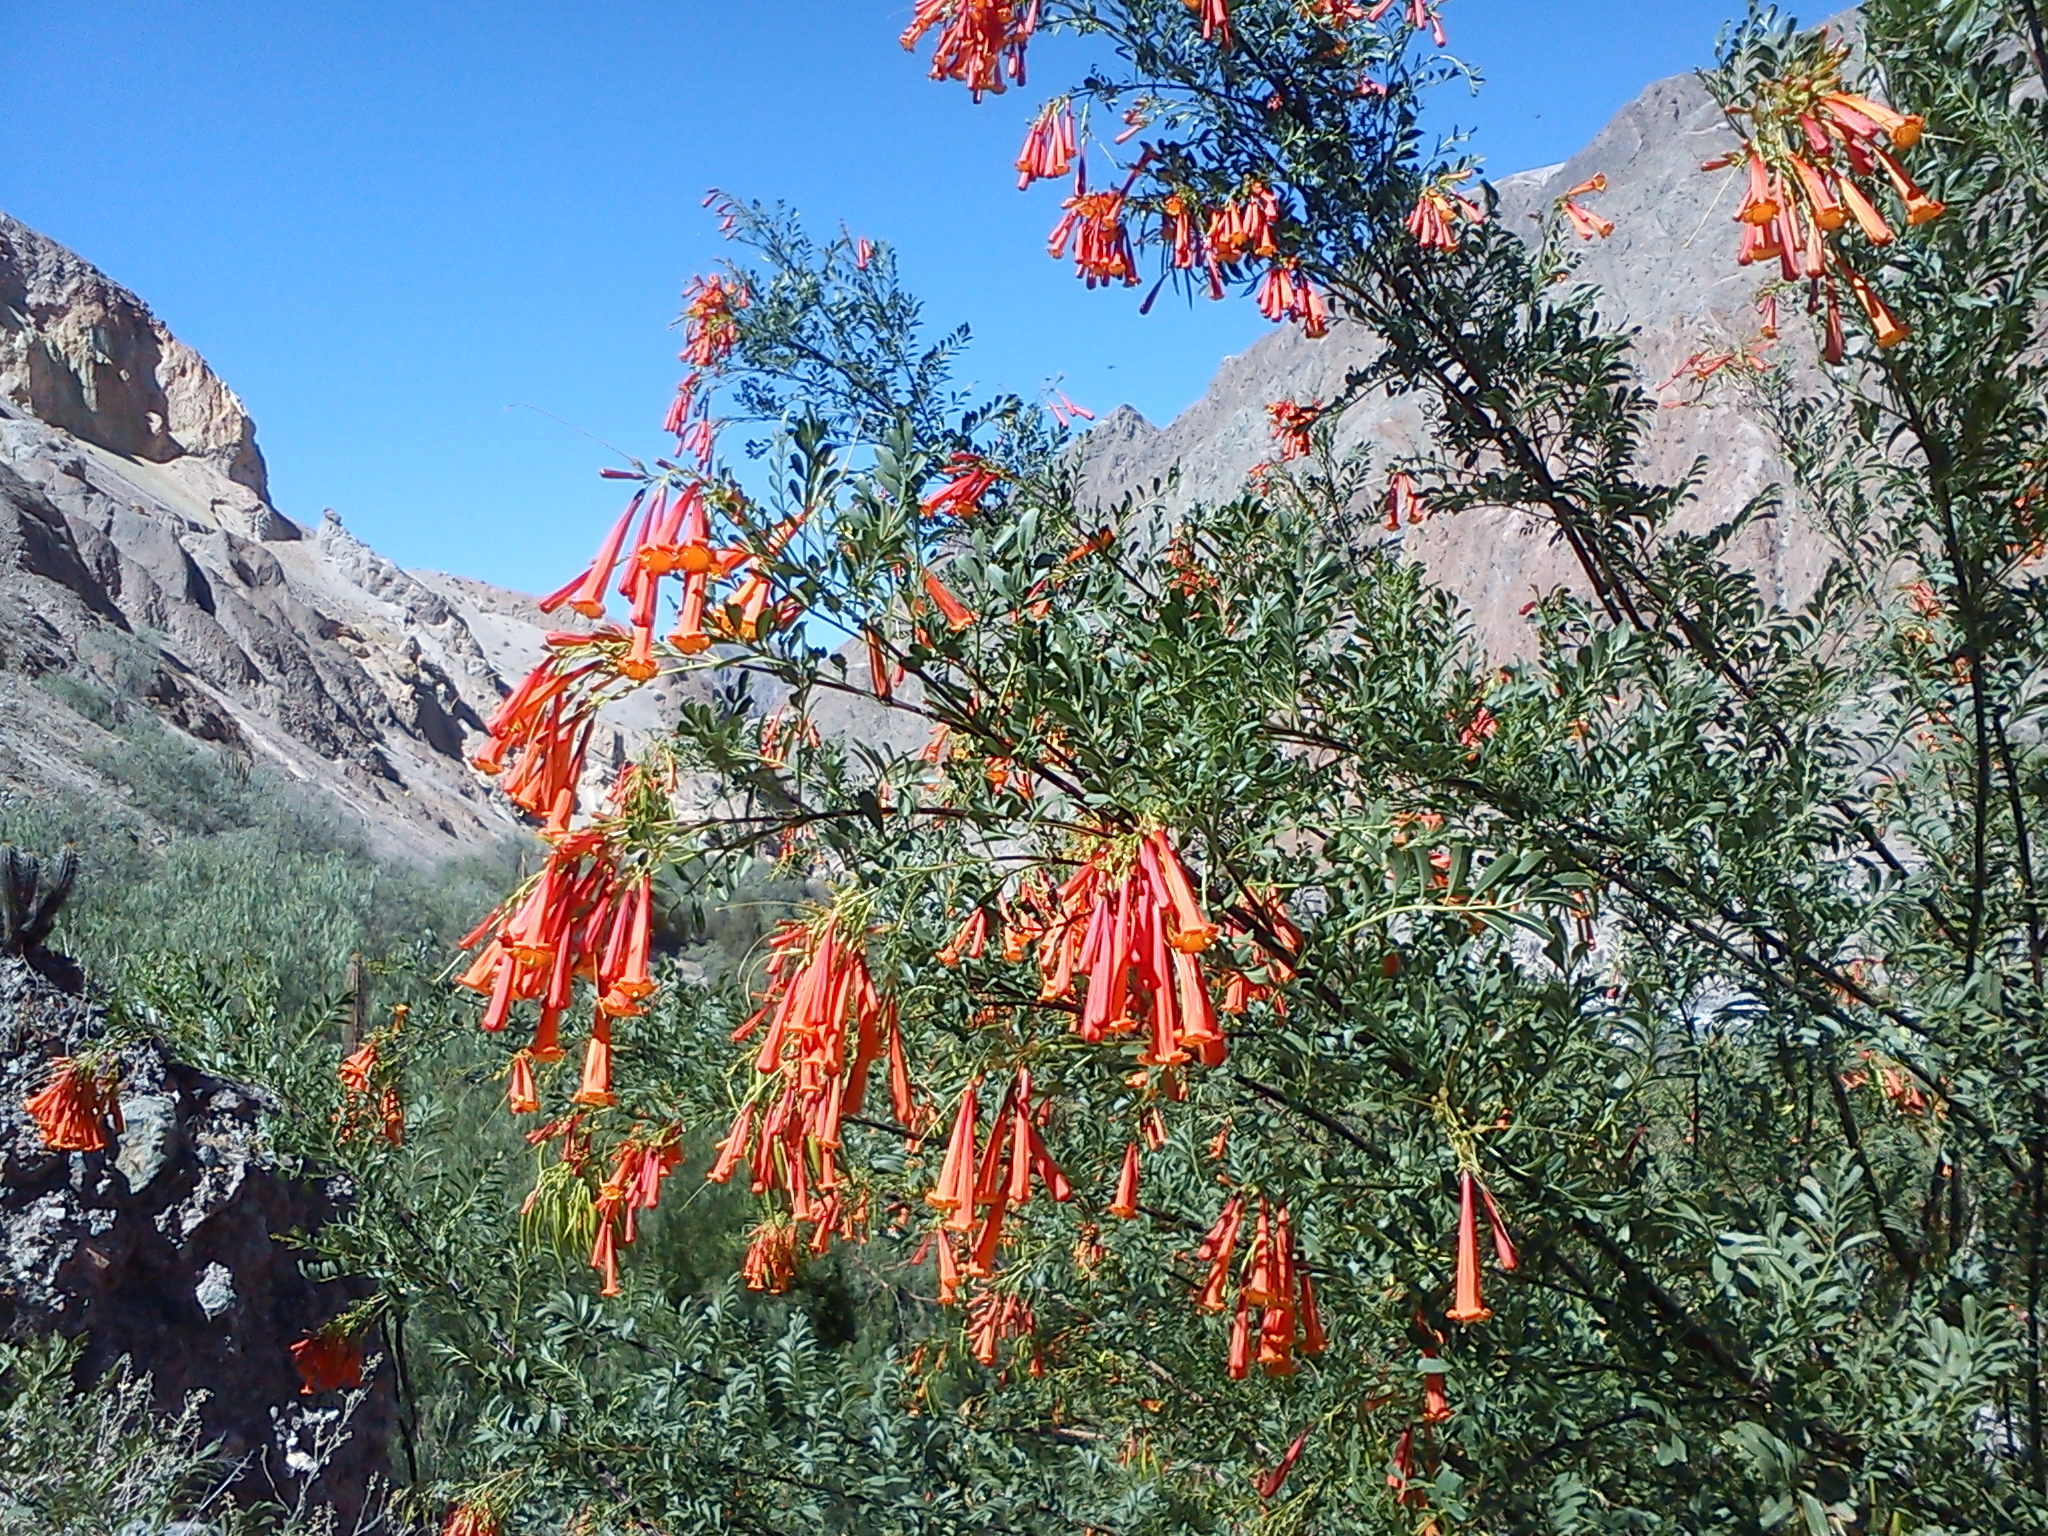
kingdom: Plantae
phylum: Tracheophyta
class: Magnoliopsida
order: Lamiales
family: Bignoniaceae
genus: Tecoma
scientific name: Tecoma fulva
